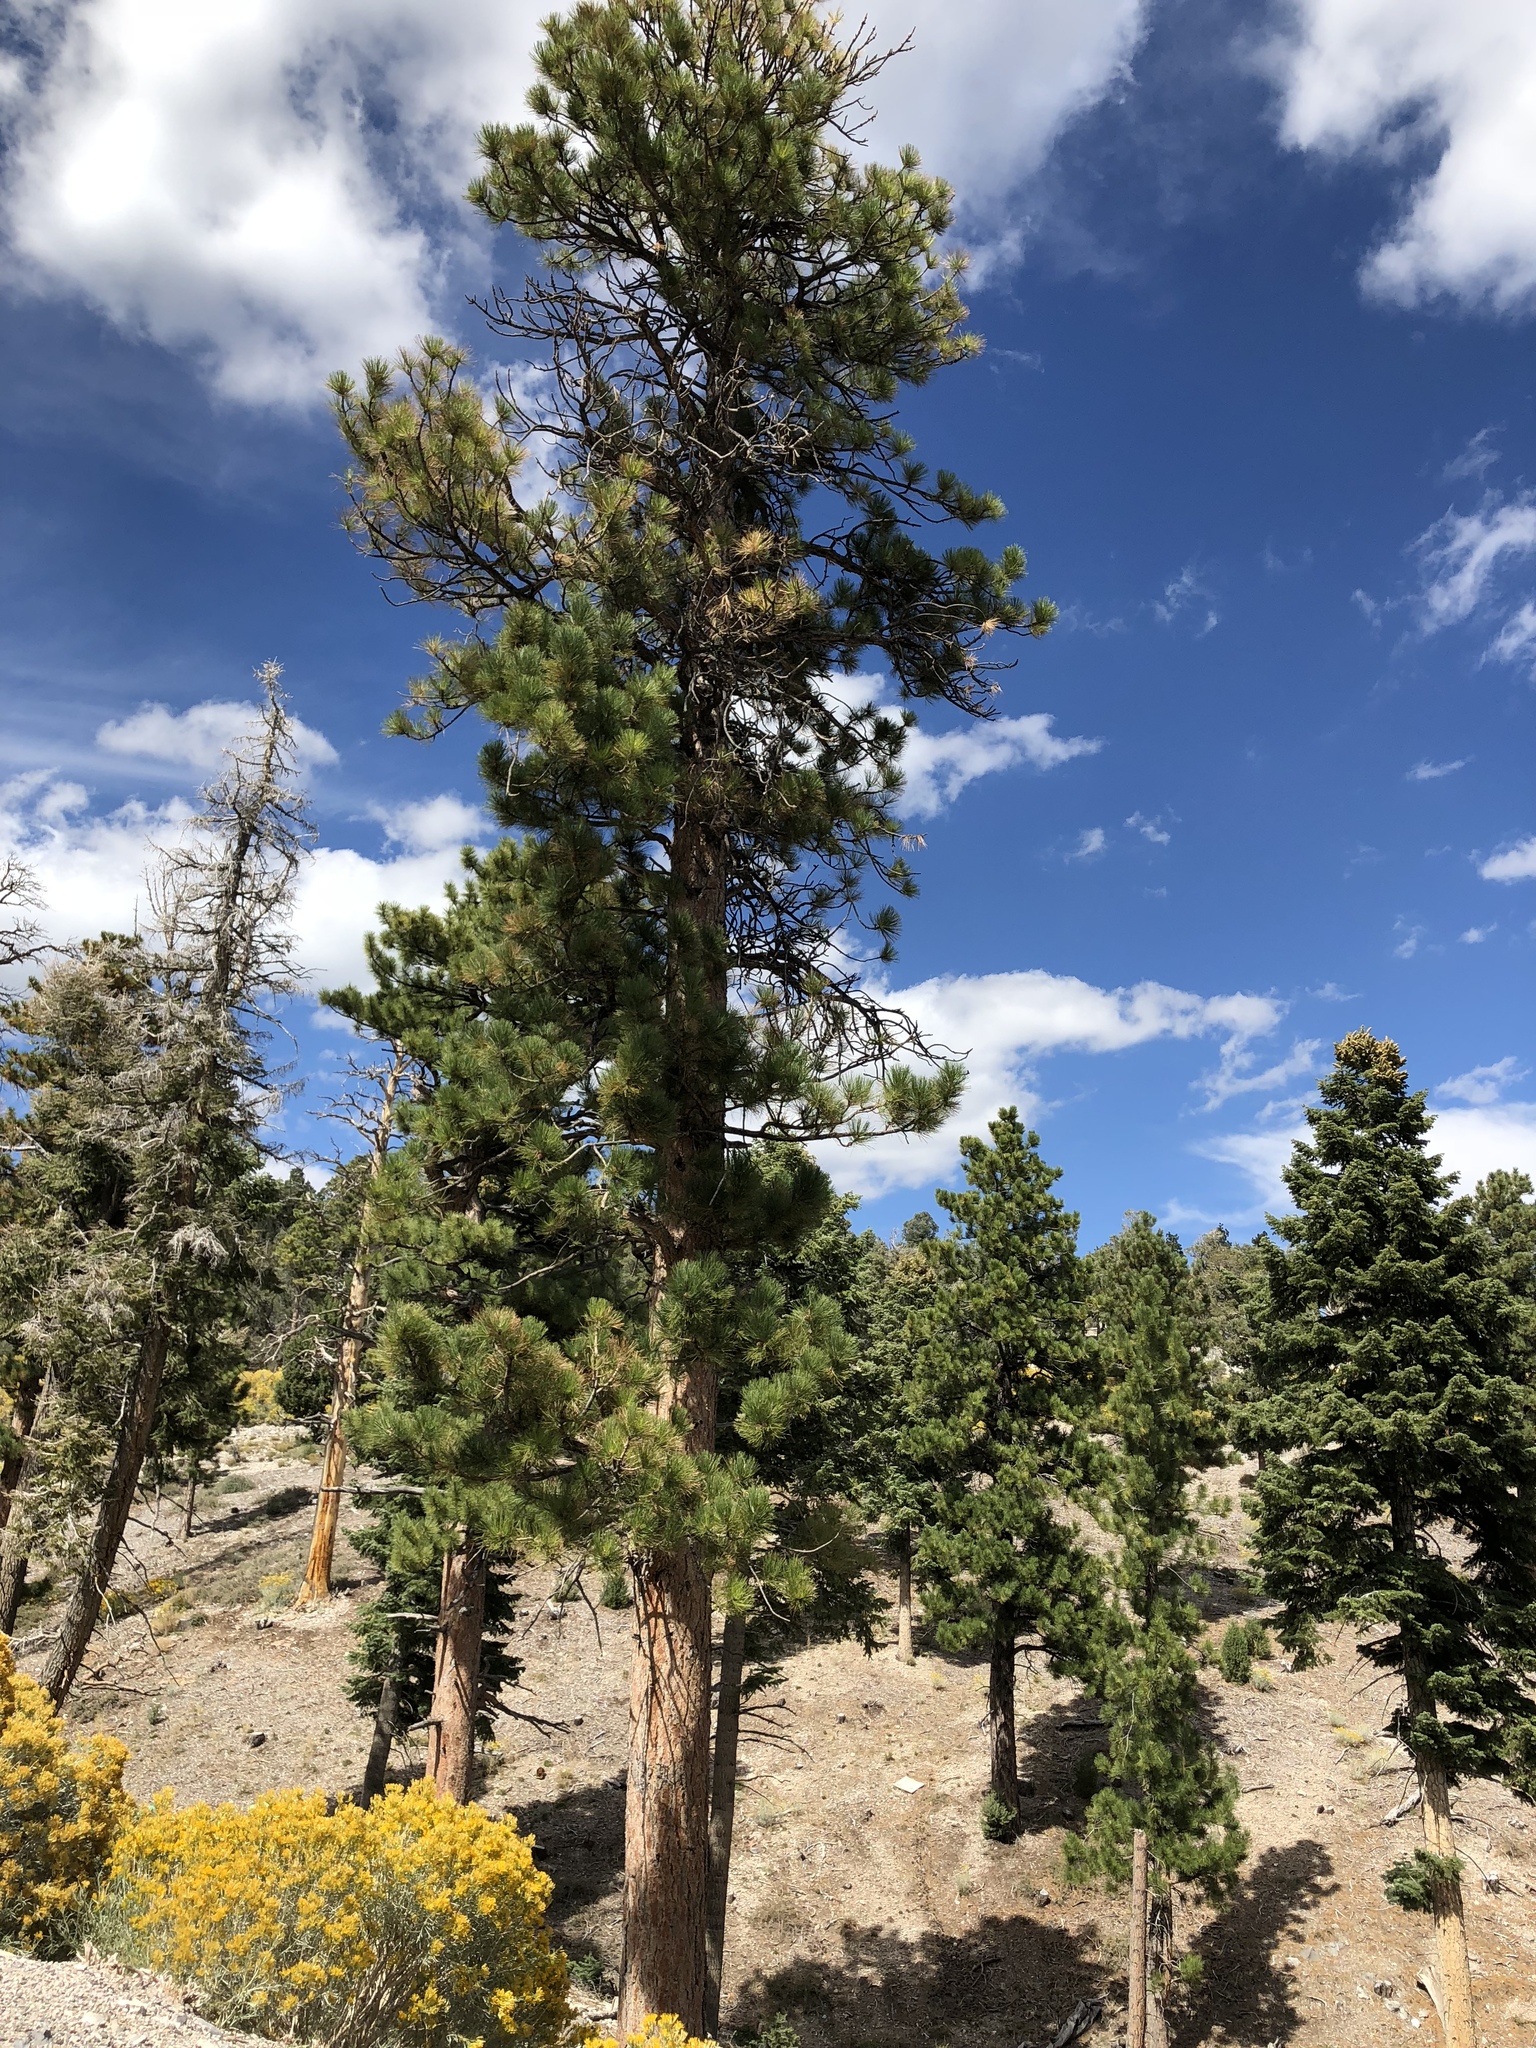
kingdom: Plantae
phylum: Tracheophyta
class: Pinopsida
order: Pinales
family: Pinaceae
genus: Pinus
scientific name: Pinus ponderosa
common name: Western yellow-pine
